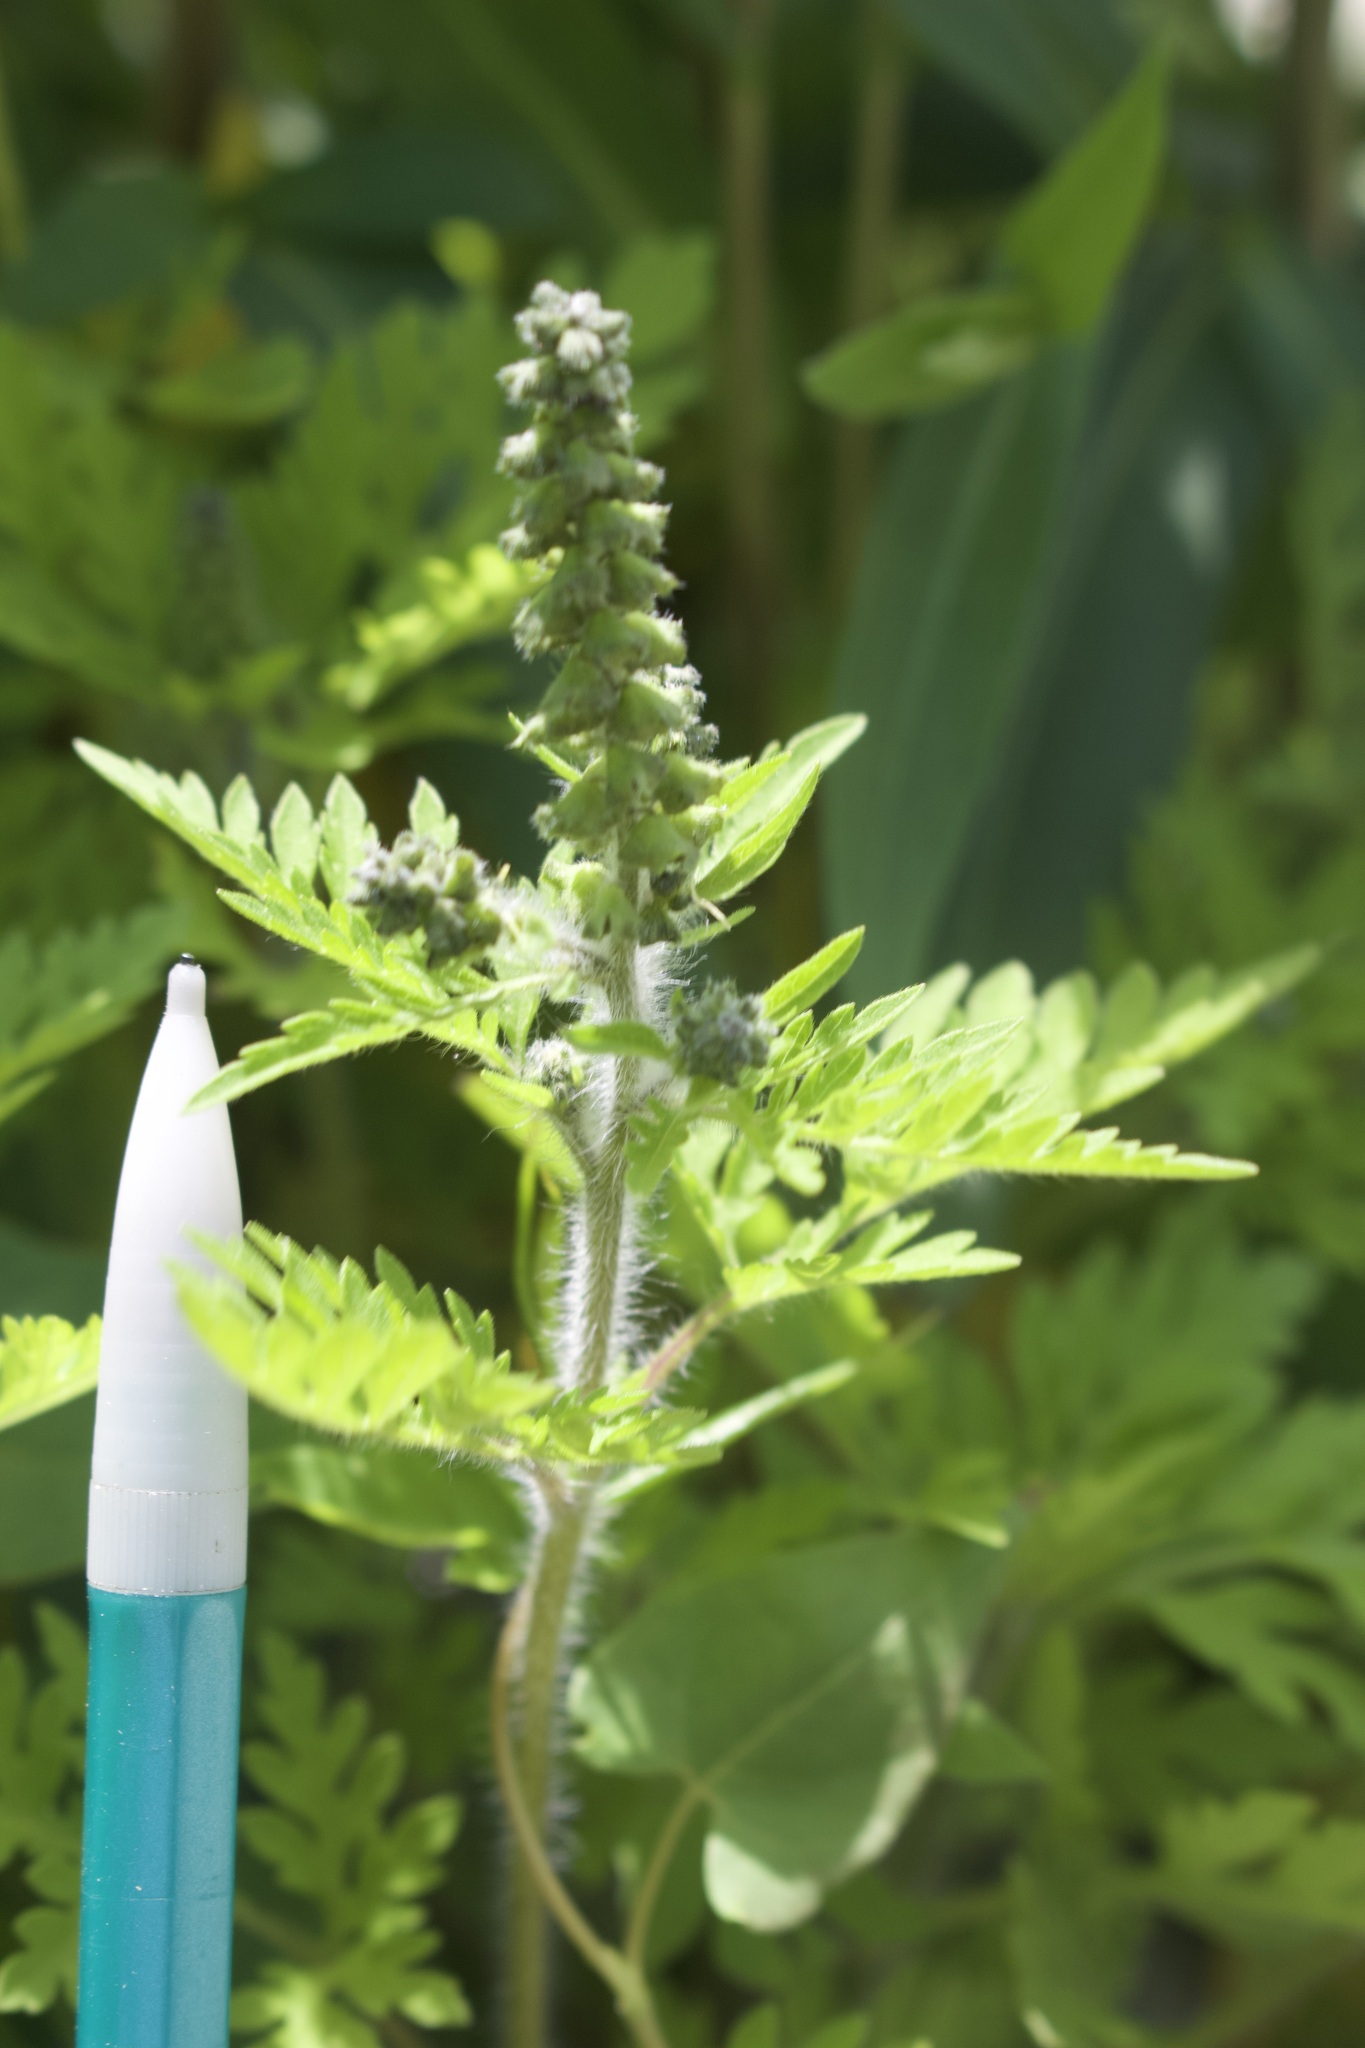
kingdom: Plantae
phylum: Tracheophyta
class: Magnoliopsida
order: Asterales
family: Asteraceae
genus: Ambrosia
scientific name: Ambrosia artemisiifolia
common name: Annual ragweed
